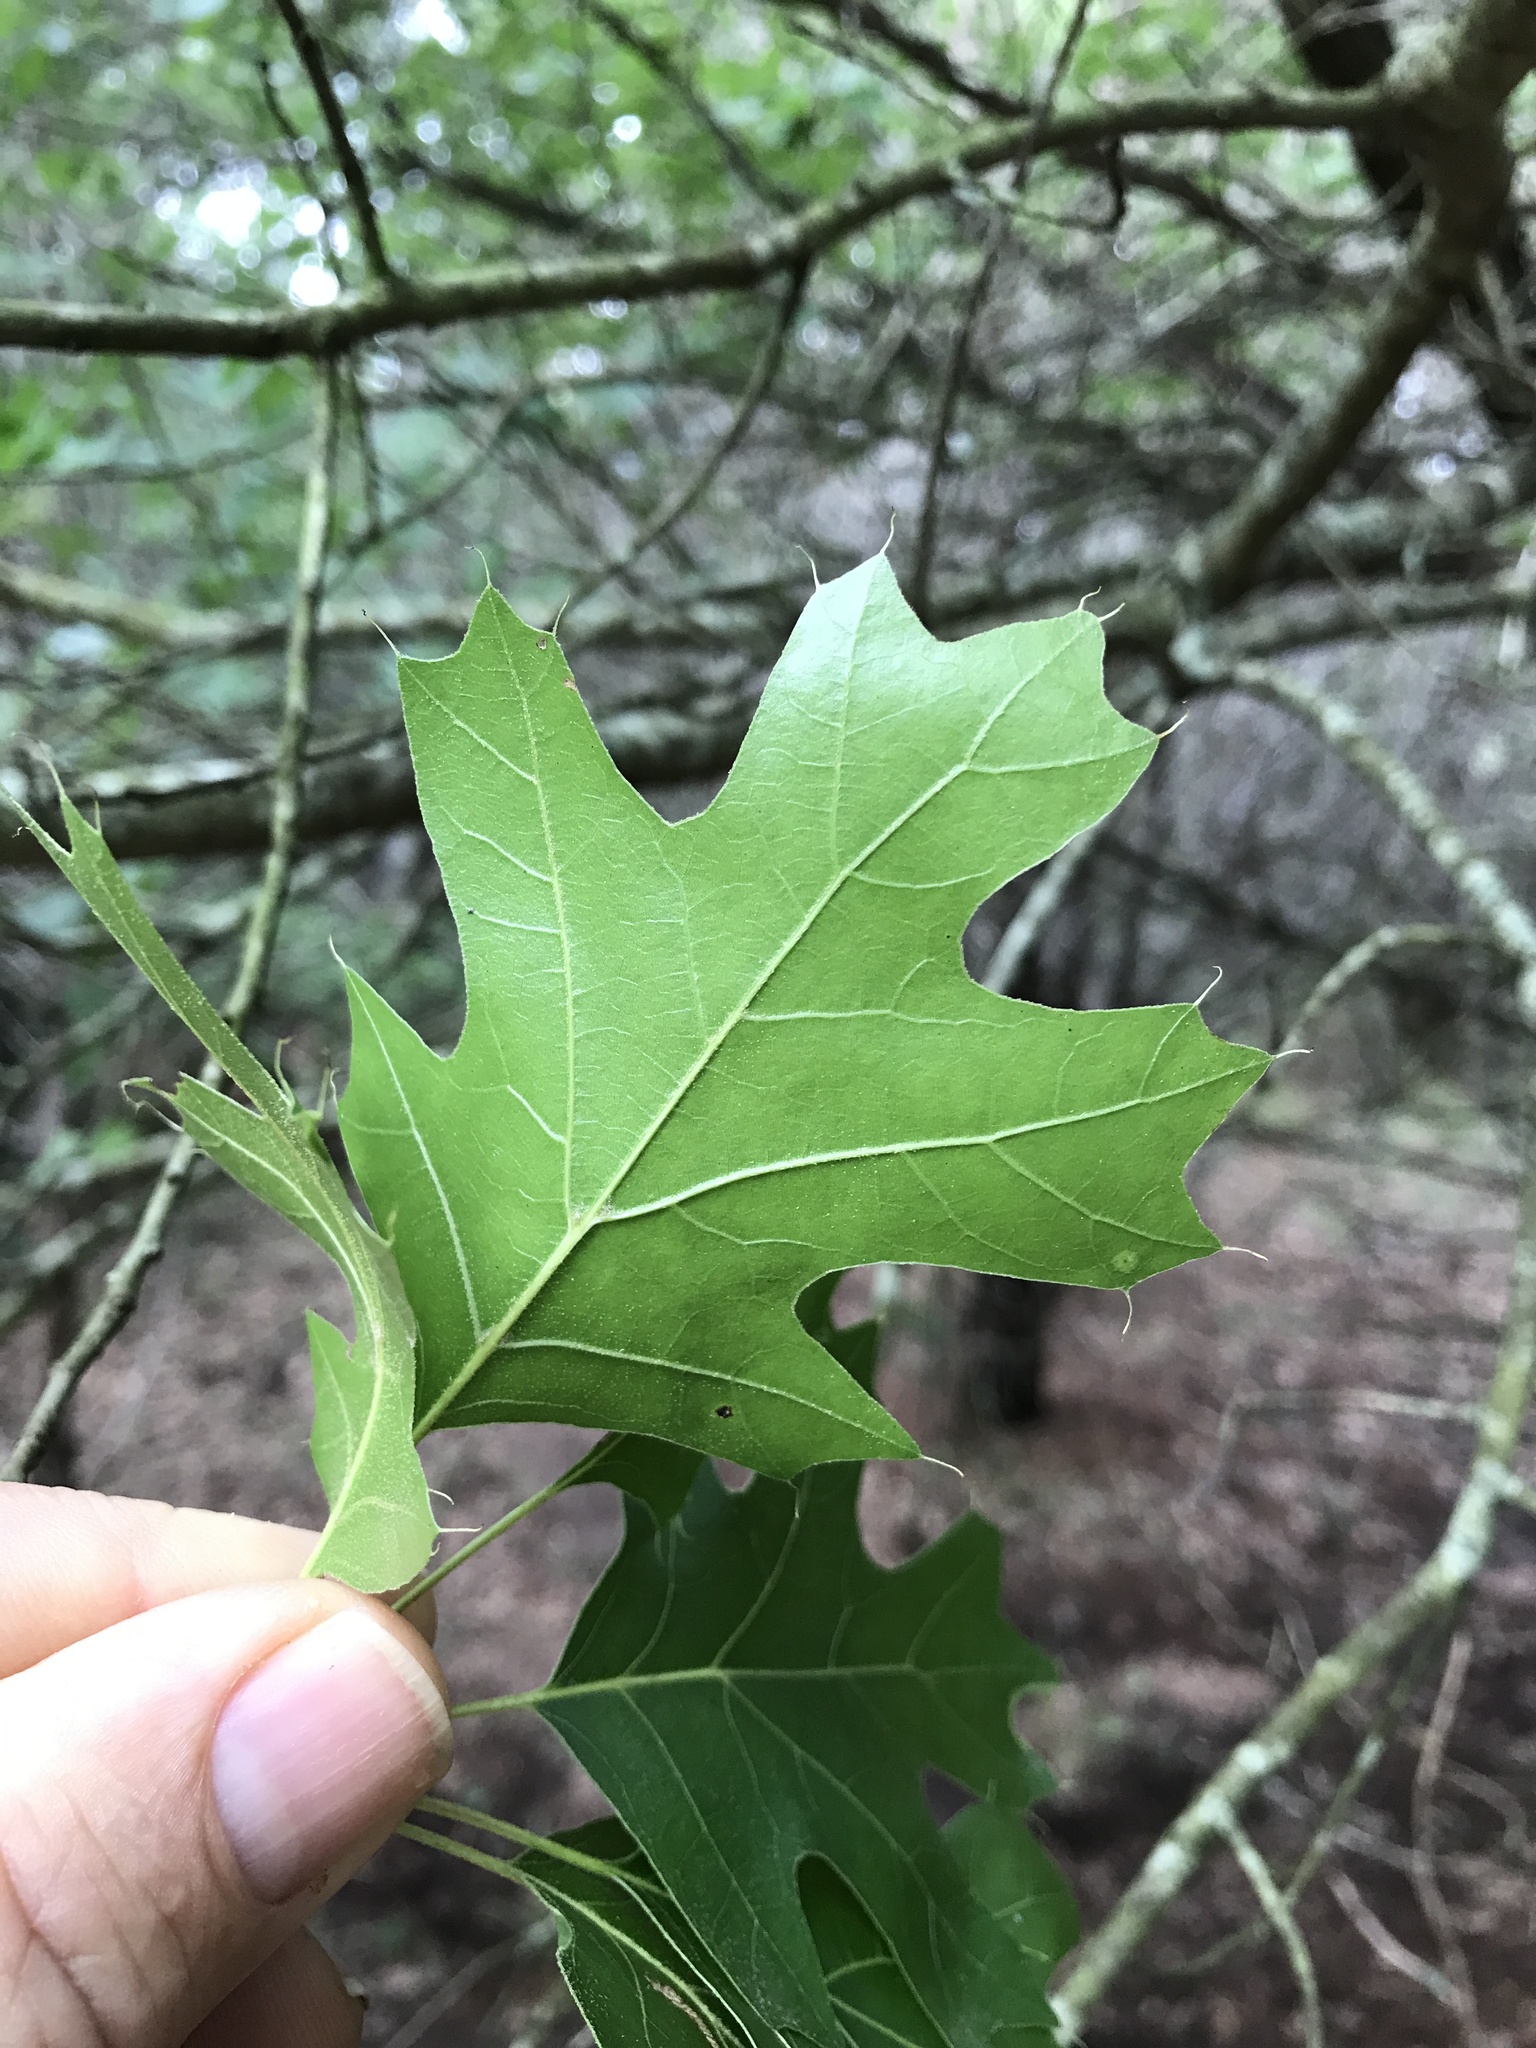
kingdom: Plantae
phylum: Tracheophyta
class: Magnoliopsida
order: Fagales
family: Fagaceae
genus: Quercus
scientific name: Quercus buckleyi
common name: Buckley oak
